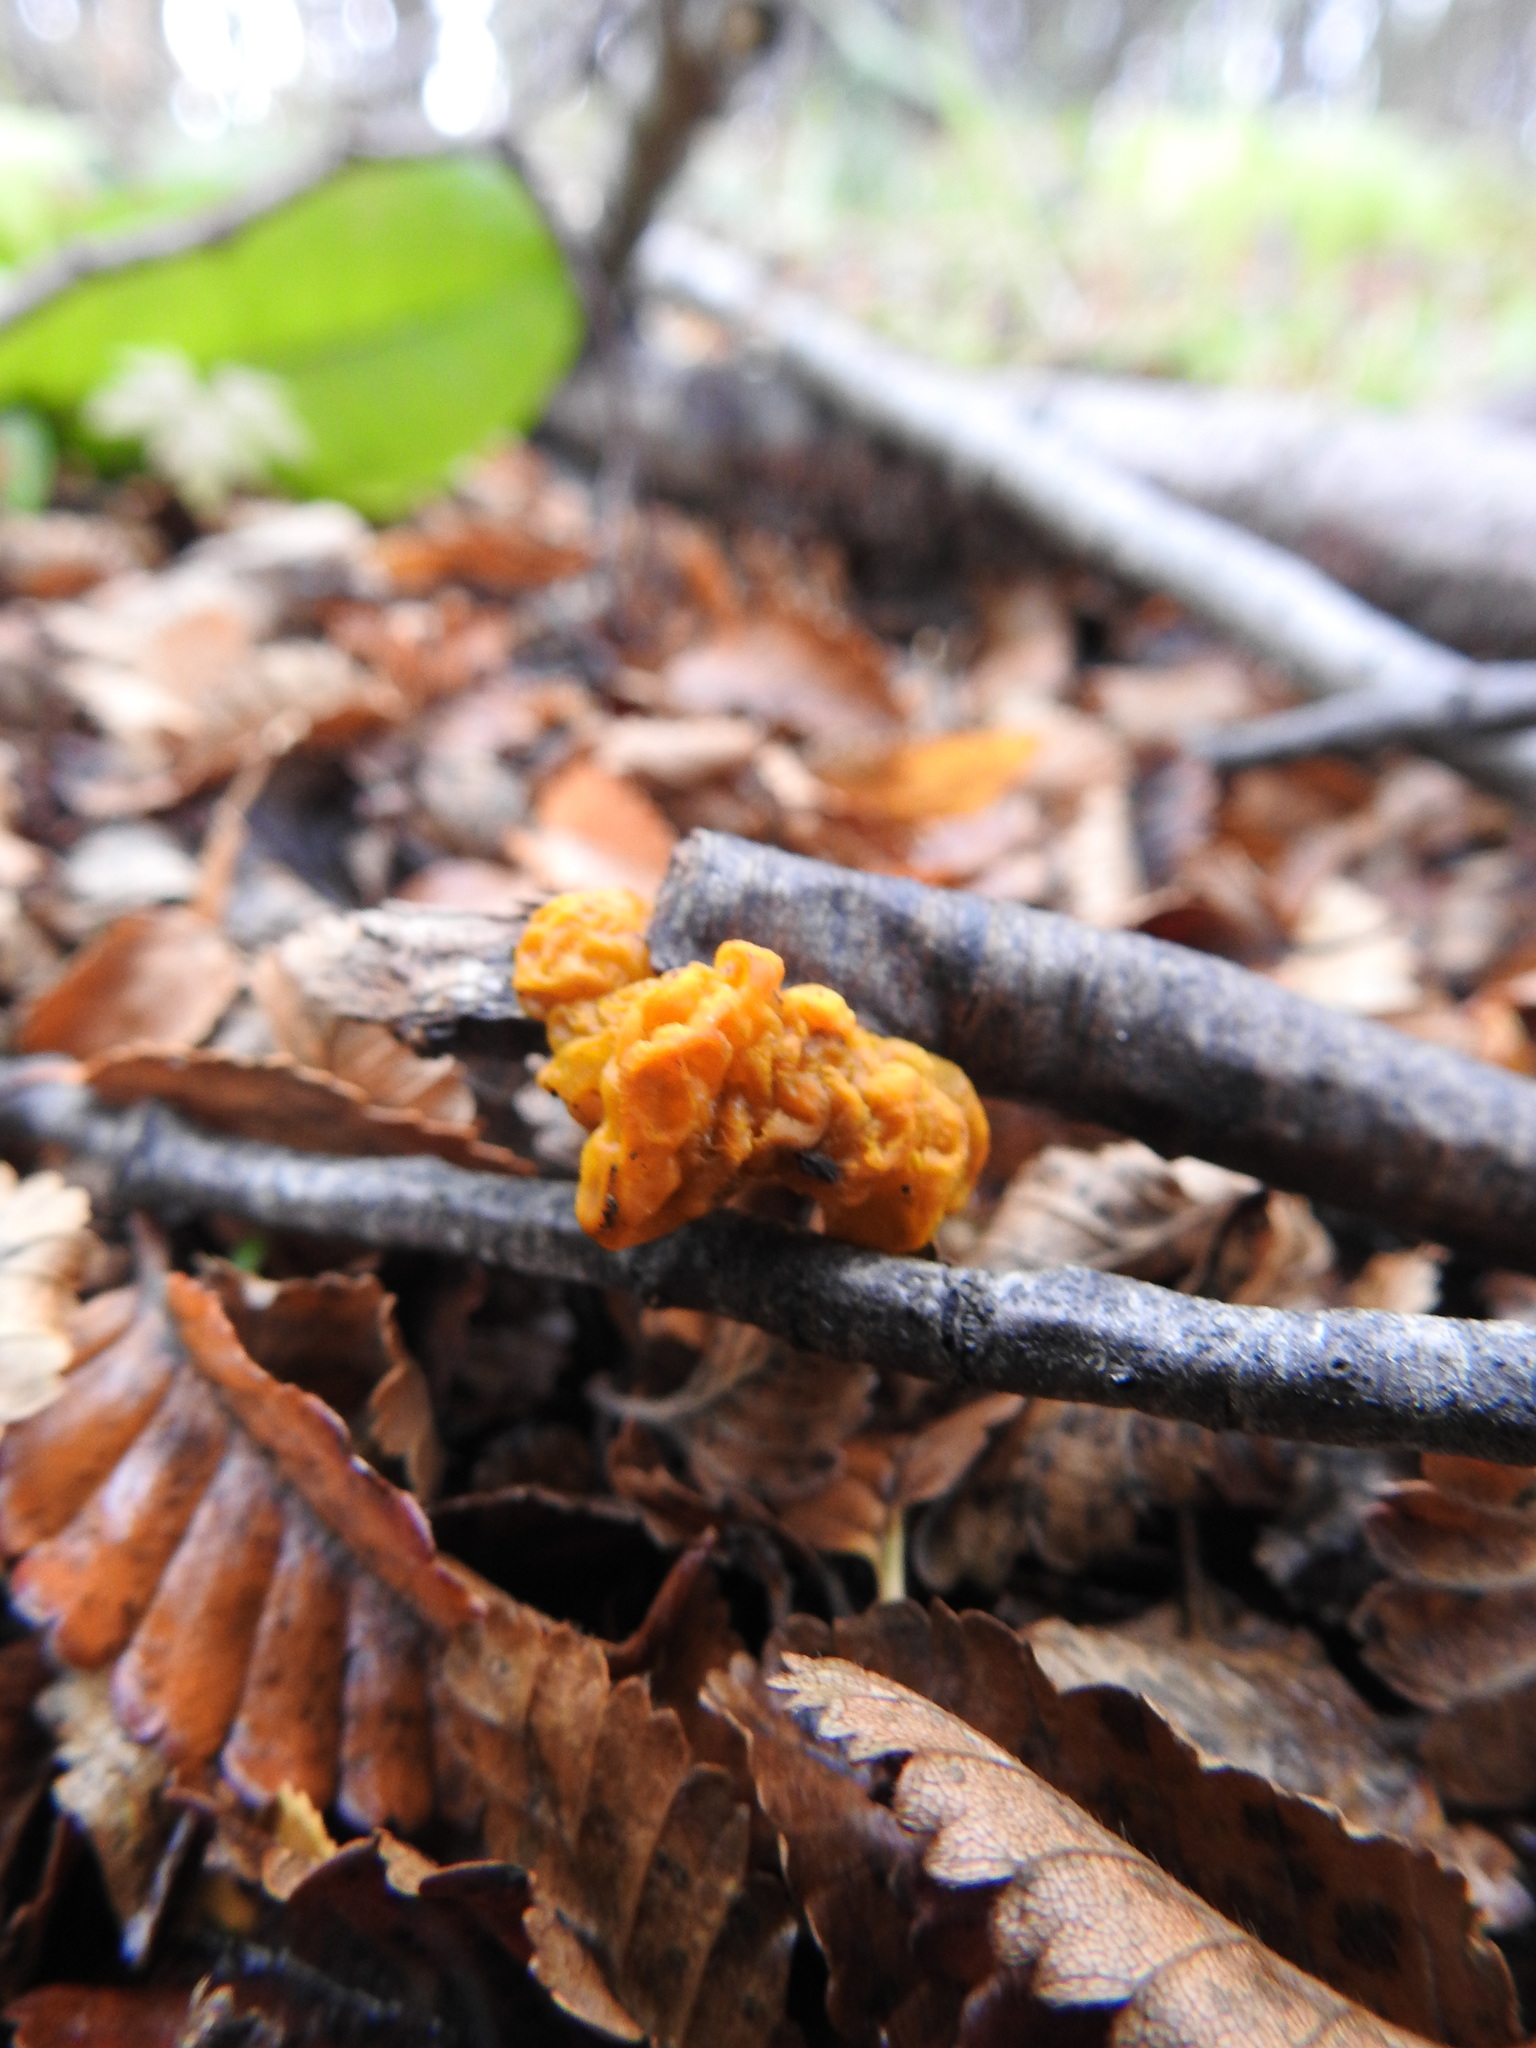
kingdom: Fungi
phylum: Basidiomycota
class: Tremellomycetes
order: Tremellales
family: Tremellaceae
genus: Tremella
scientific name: Tremella mesenterica
